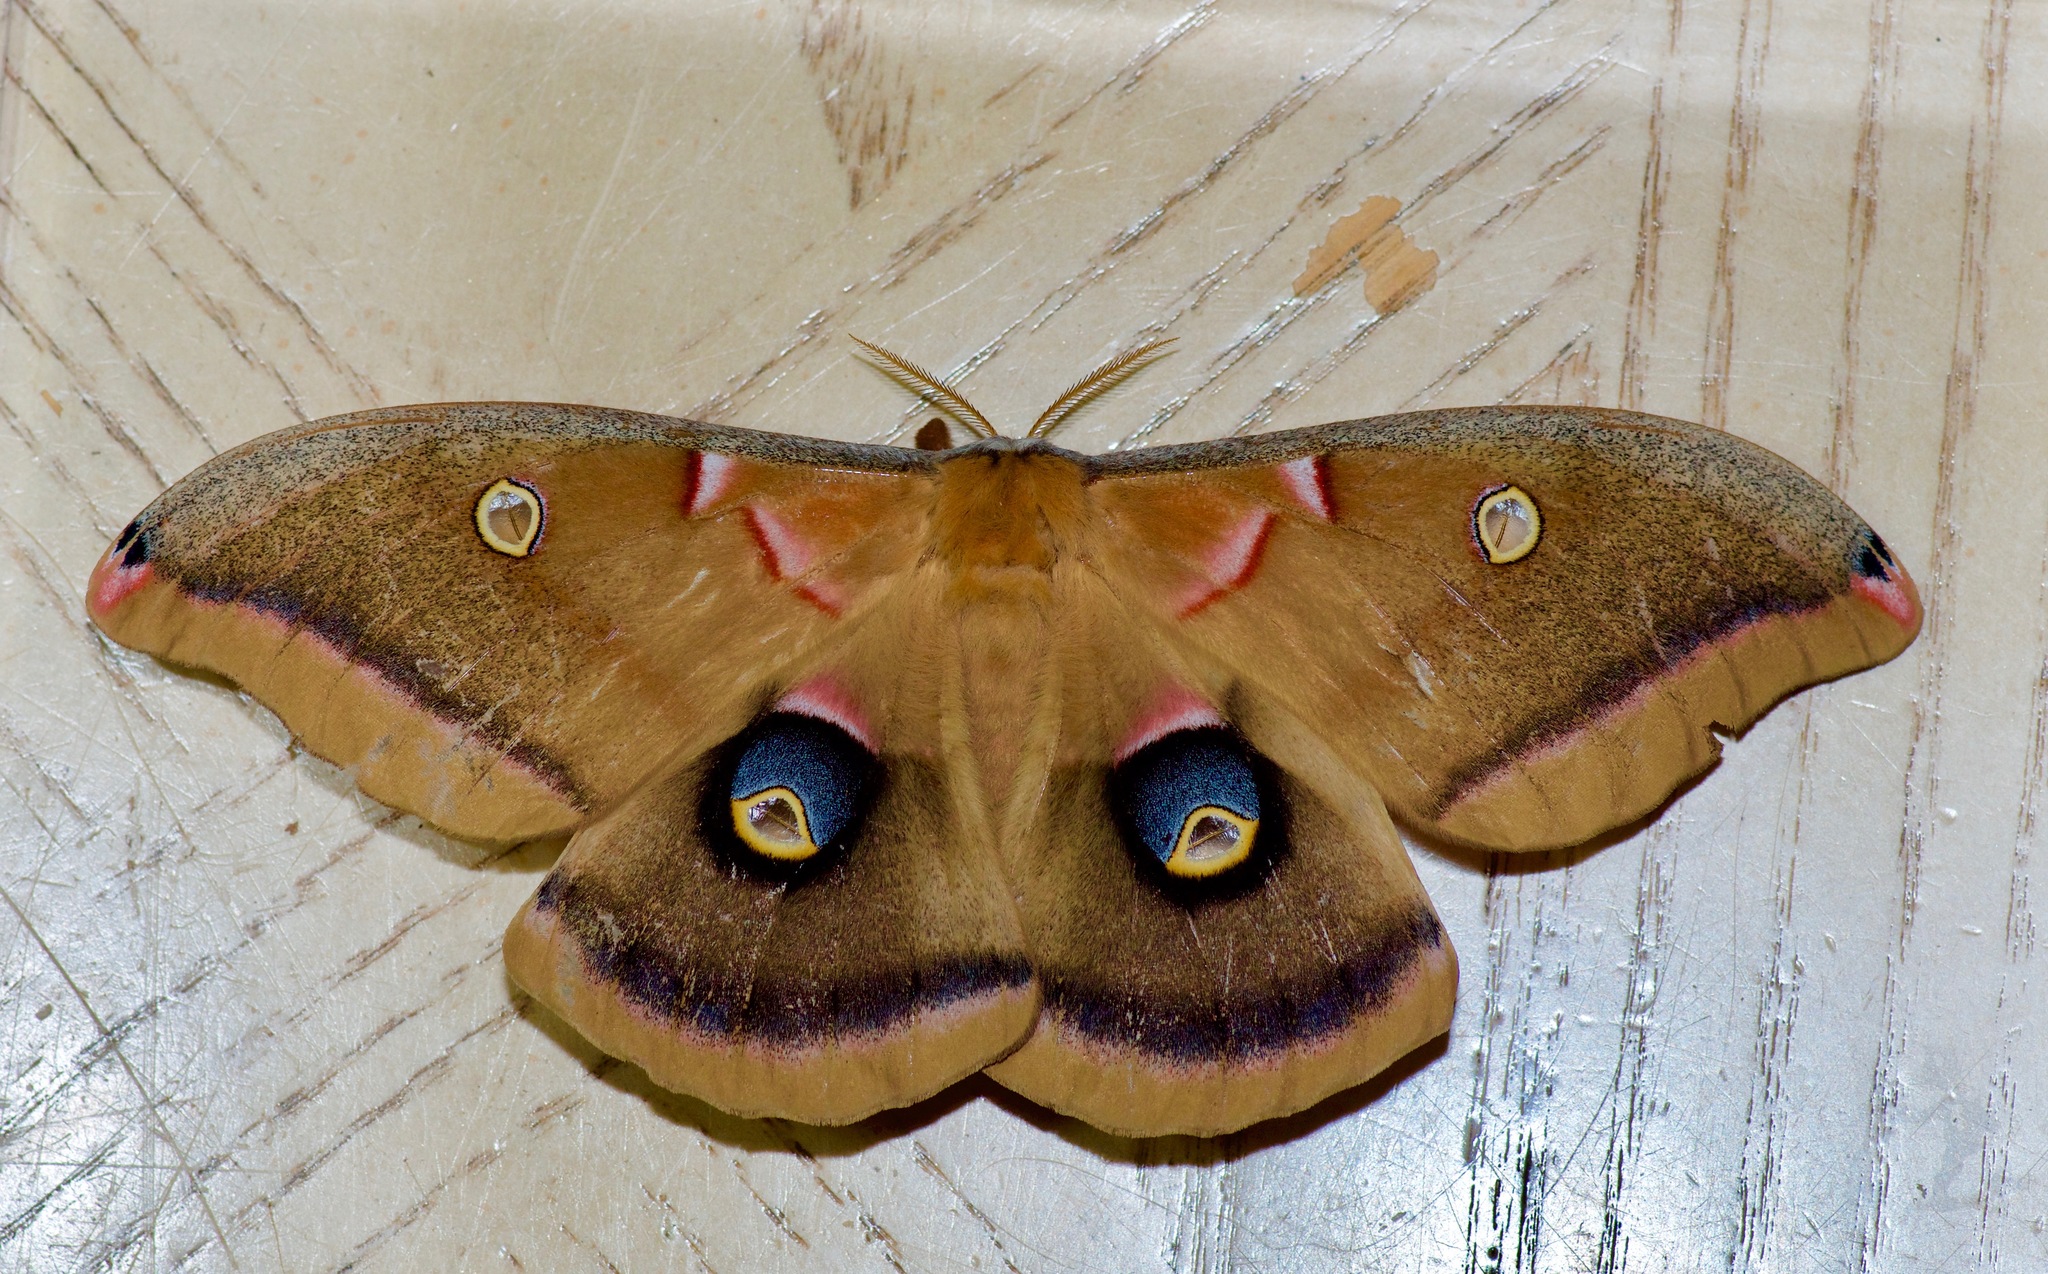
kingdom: Animalia
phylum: Arthropoda
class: Insecta
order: Lepidoptera
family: Saturniidae
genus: Antheraea
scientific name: Antheraea polyphemus
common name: Polyphemus moth
